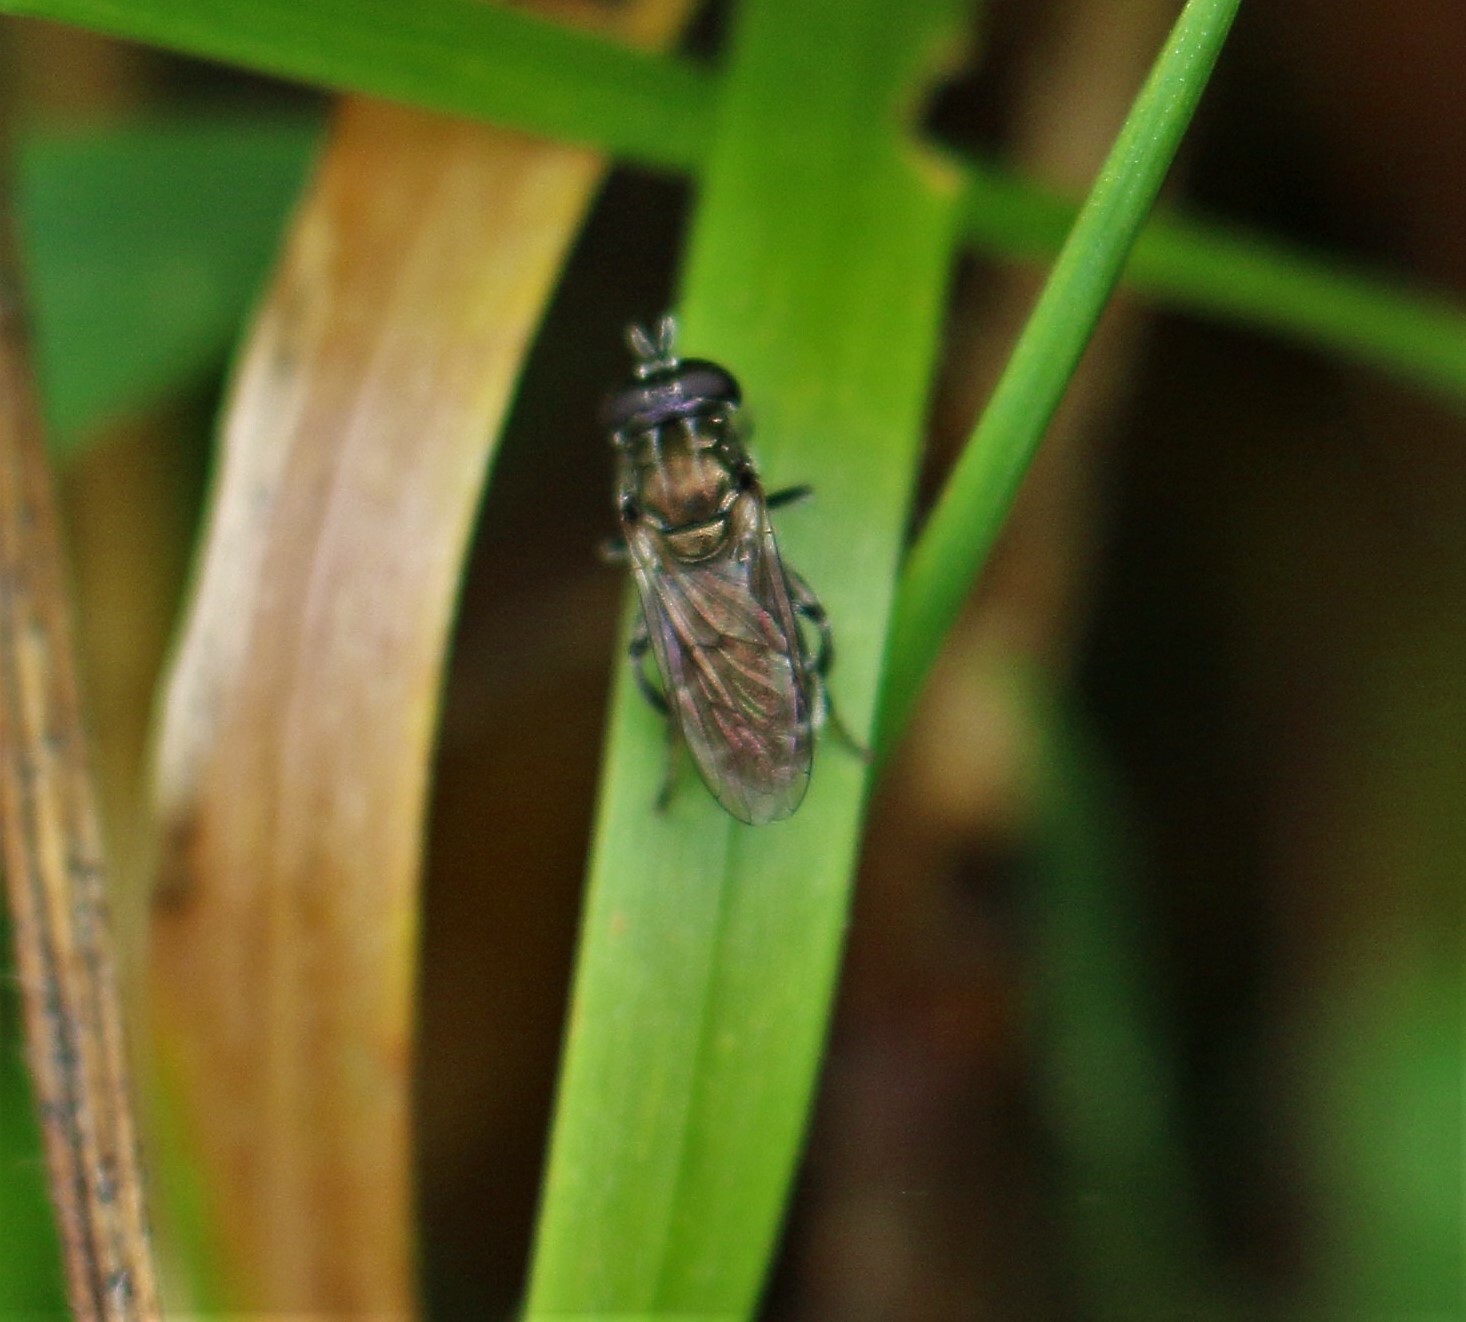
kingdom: Animalia
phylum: Arthropoda
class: Insecta
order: Diptera
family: Syrphidae
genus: Eumerus
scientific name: Eumerus
